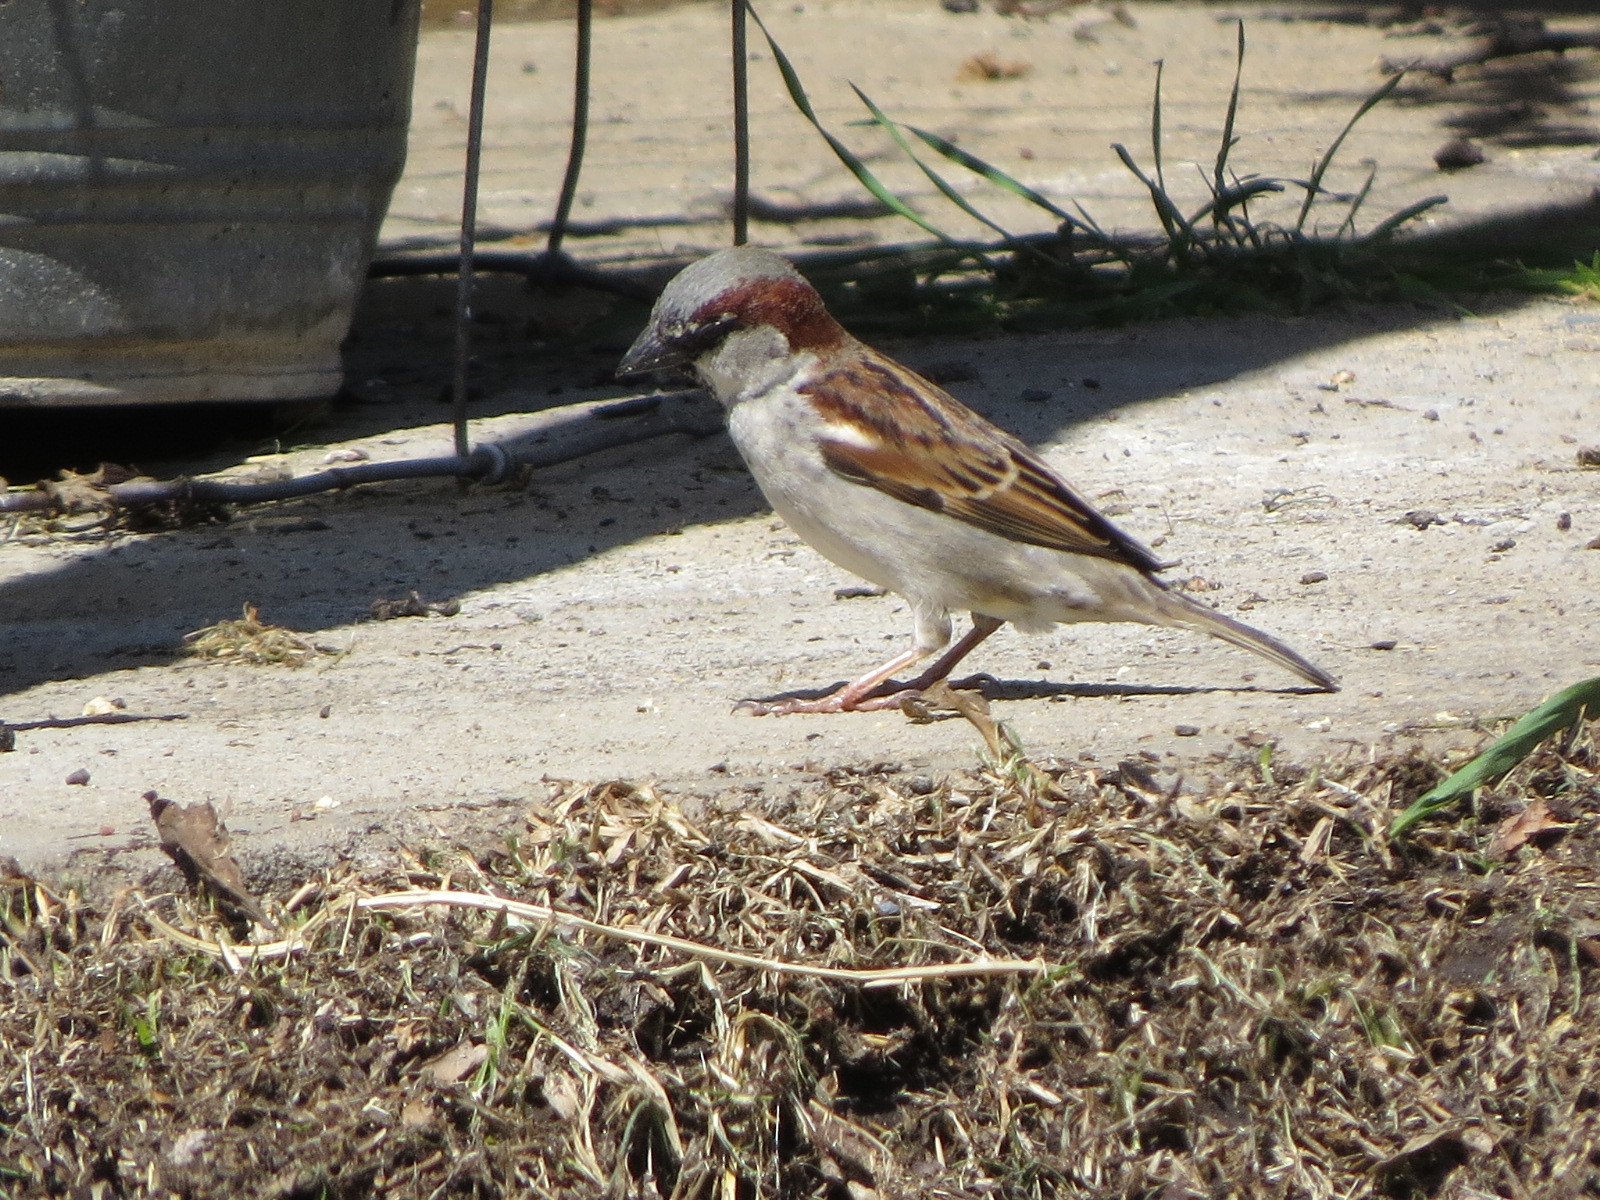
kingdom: Animalia
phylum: Chordata
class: Aves
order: Passeriformes
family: Passeridae
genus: Passer
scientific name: Passer domesticus
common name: House sparrow
